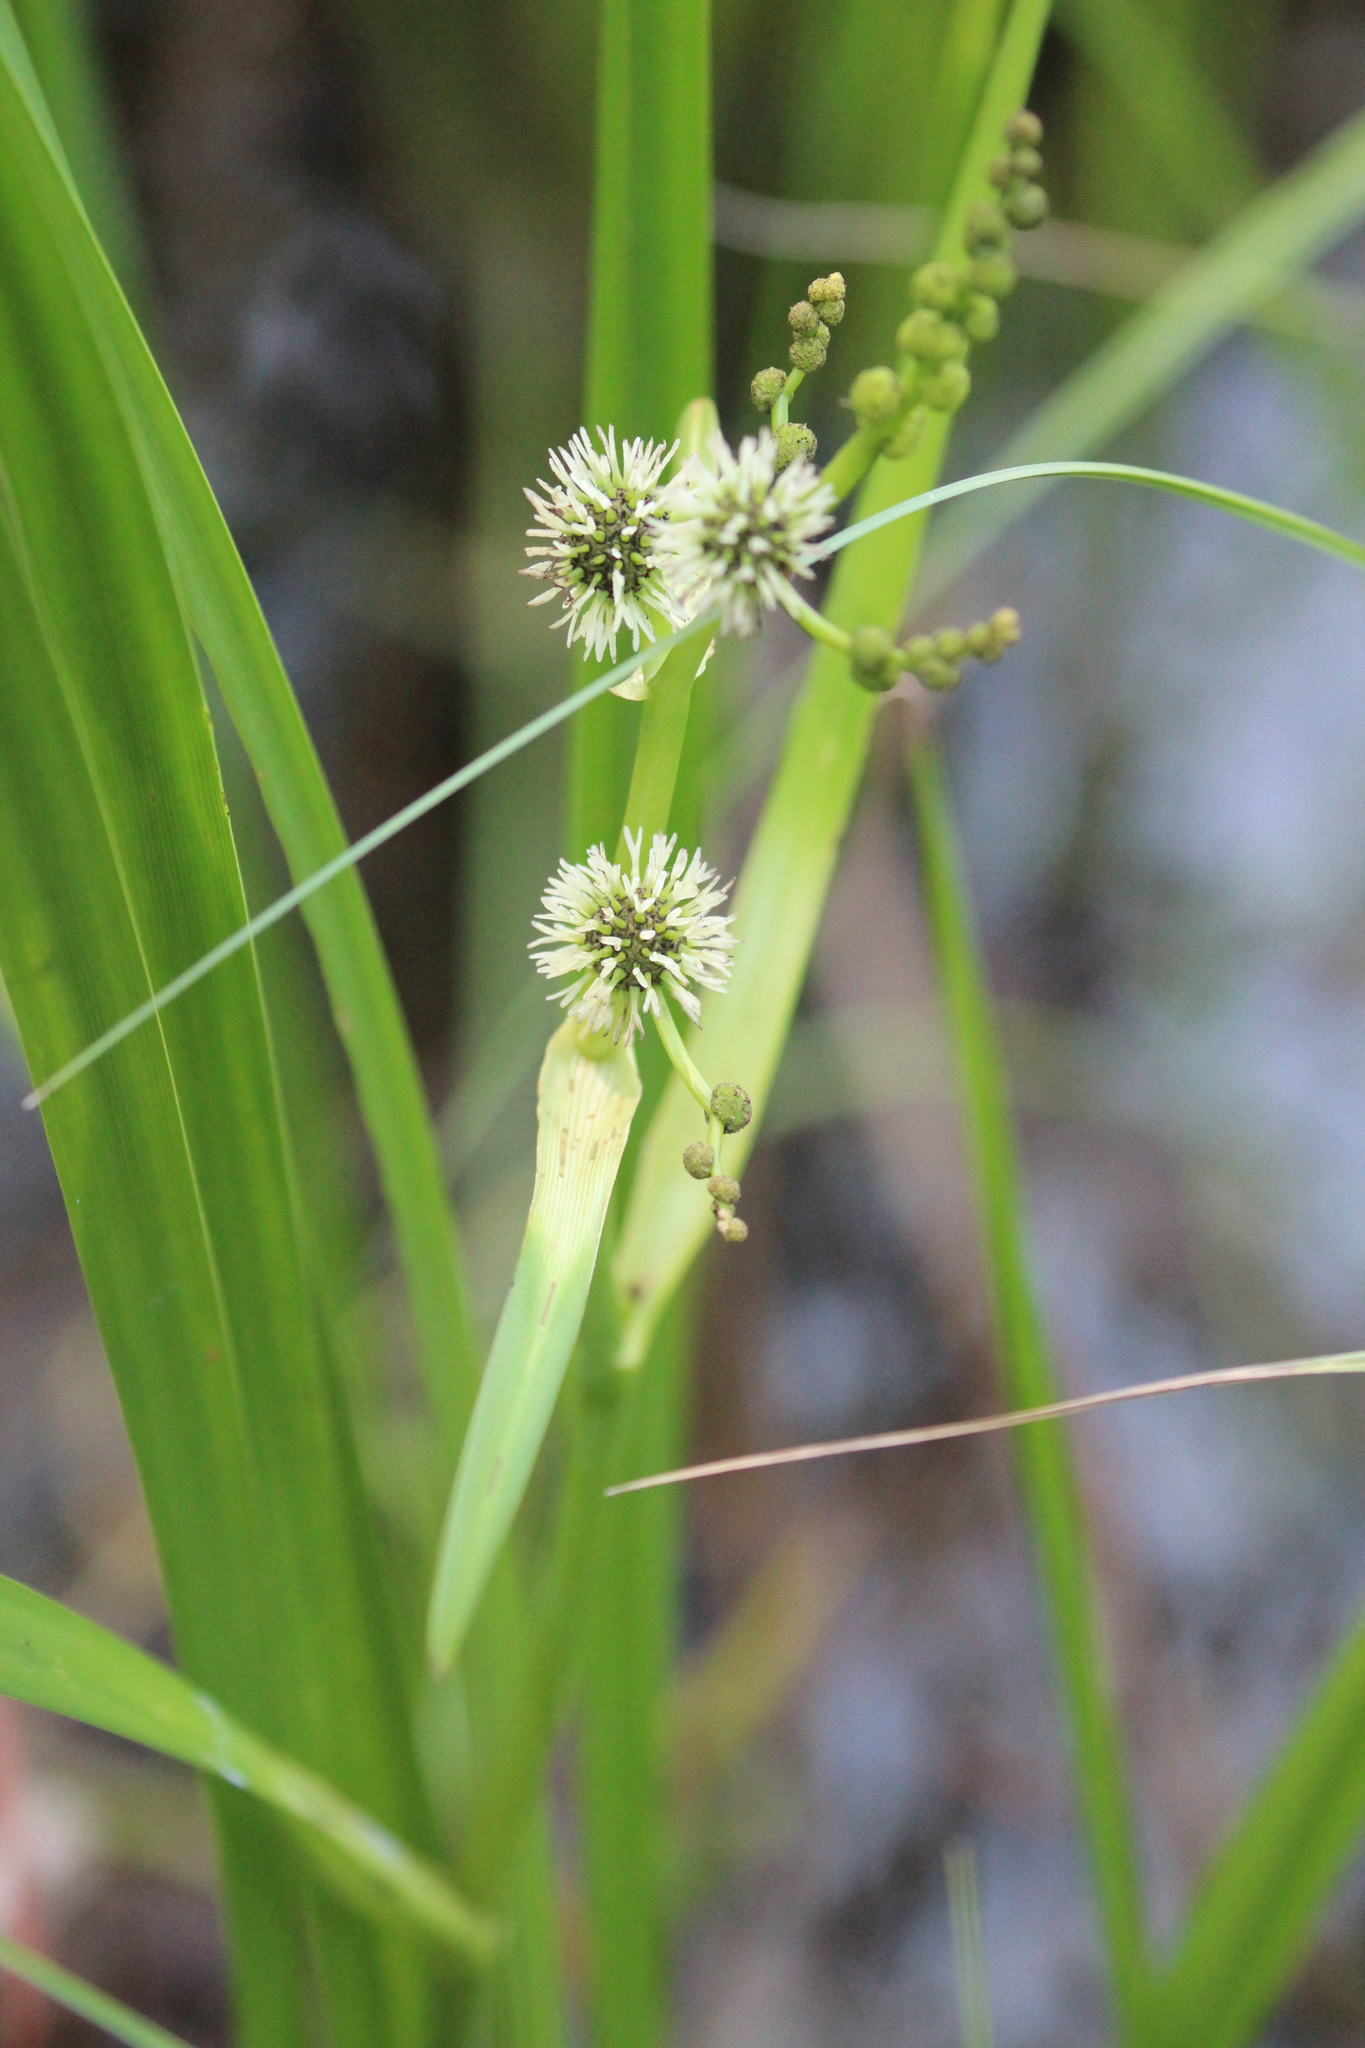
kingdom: Plantae
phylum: Tracheophyta
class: Liliopsida
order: Poales
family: Typhaceae
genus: Sparganium
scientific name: Sparganium eurycarpum
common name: Broad-fruited burreed
